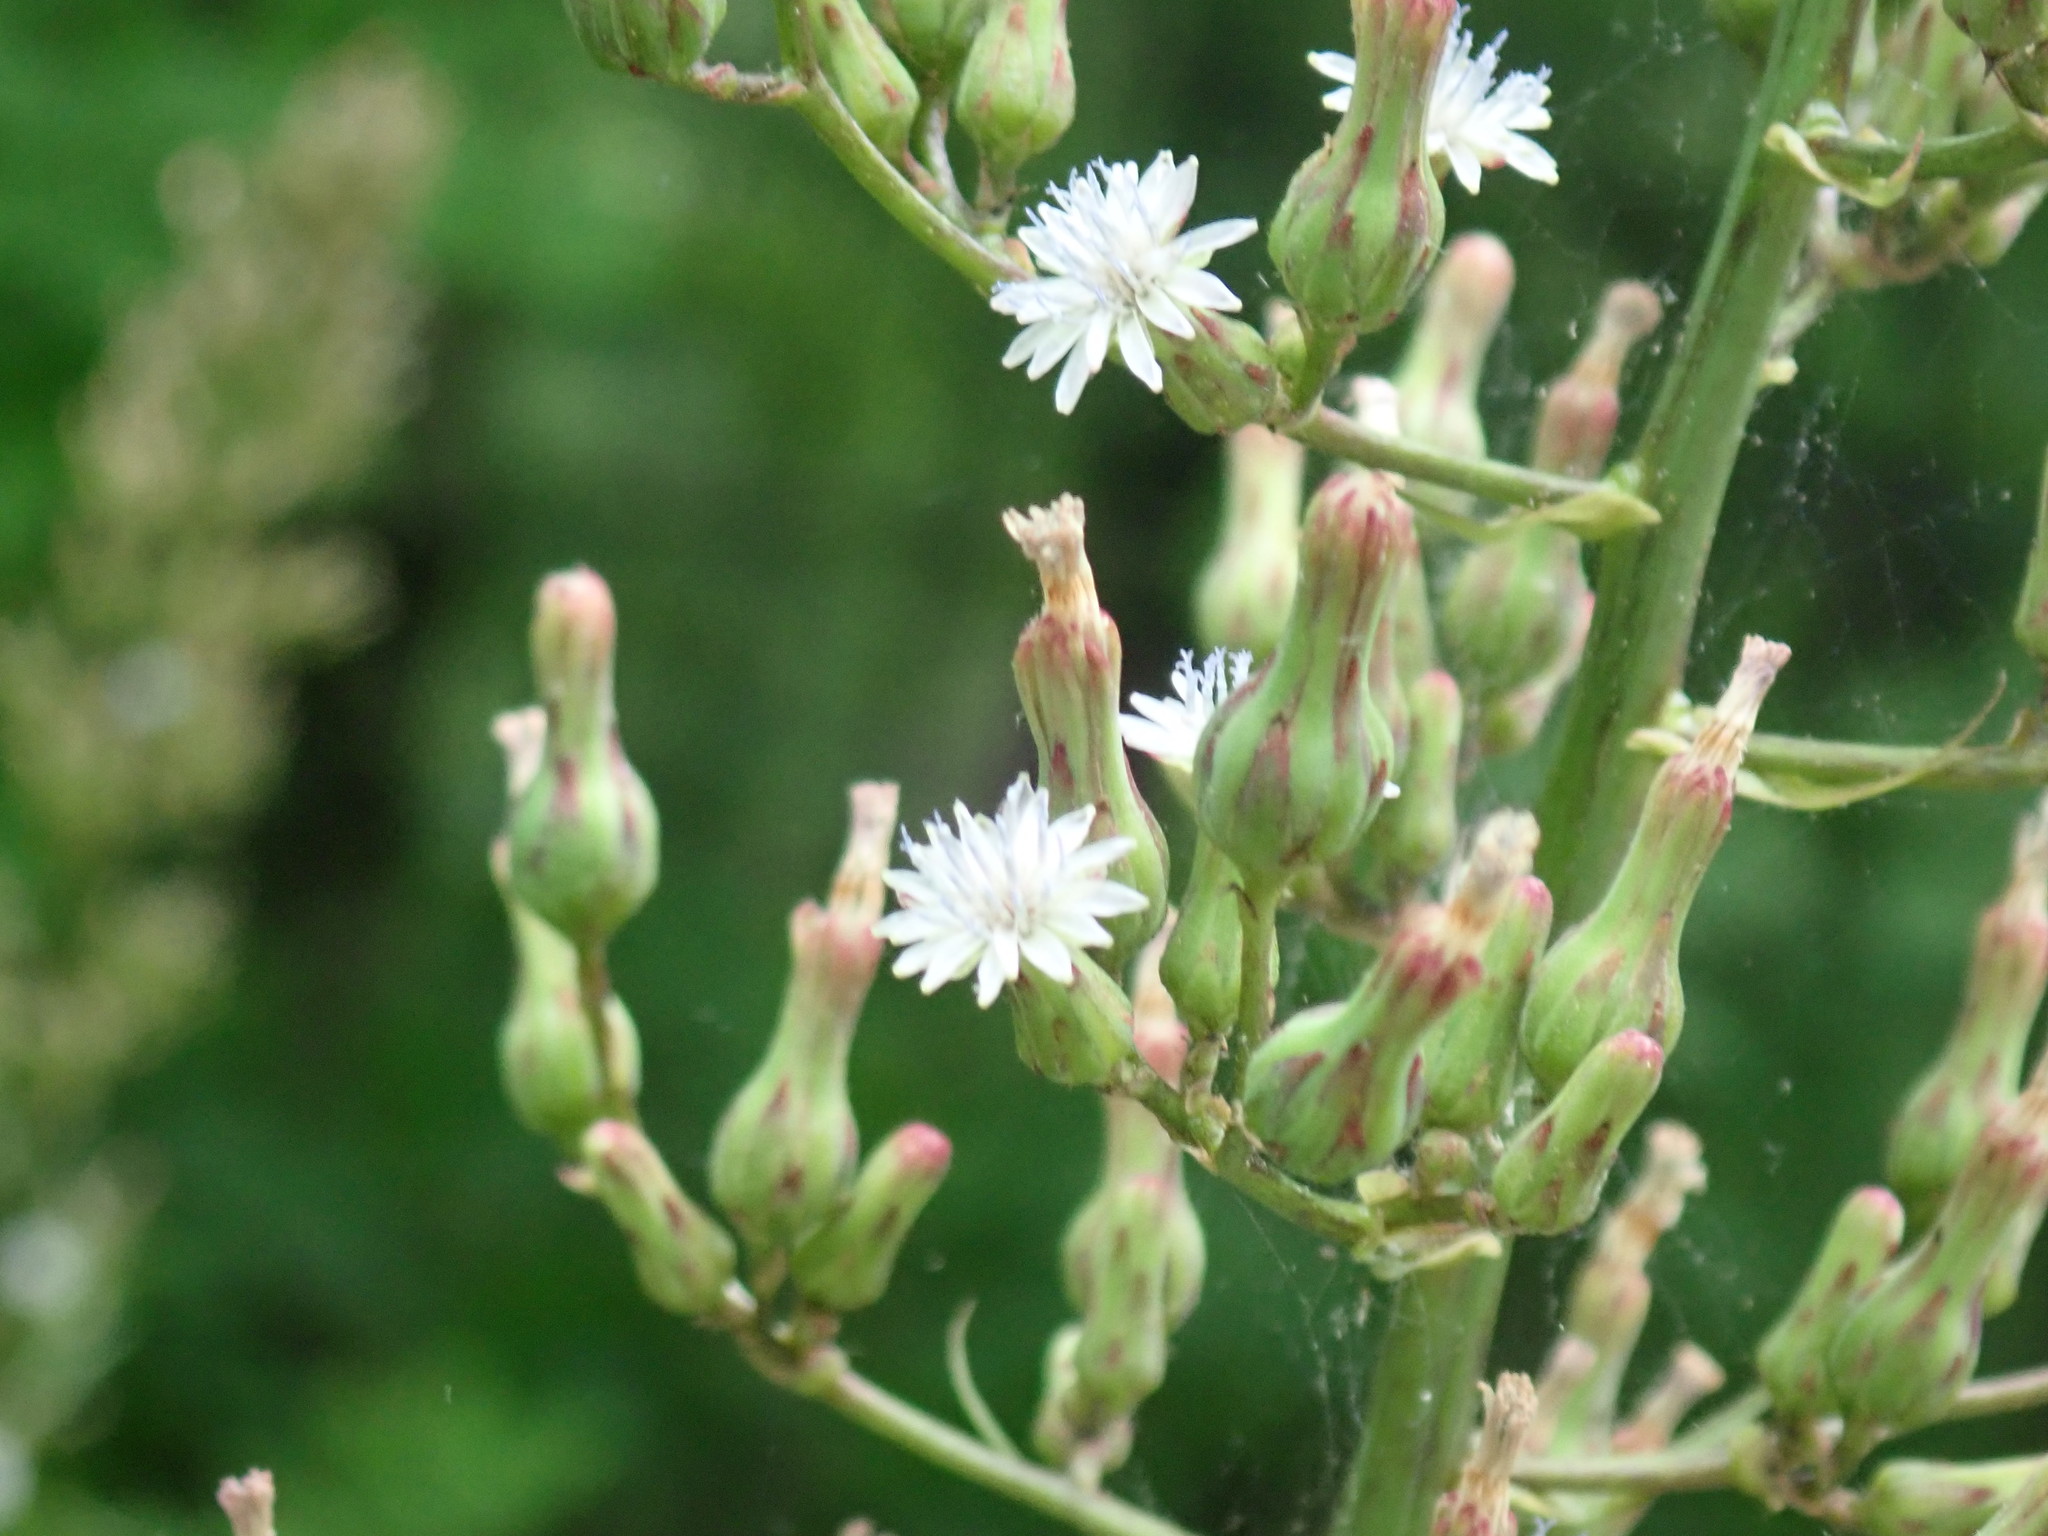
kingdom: Plantae
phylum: Tracheophyta
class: Magnoliopsida
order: Asterales
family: Asteraceae
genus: Lactuca
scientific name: Lactuca biennis
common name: Blue wood lettuce
